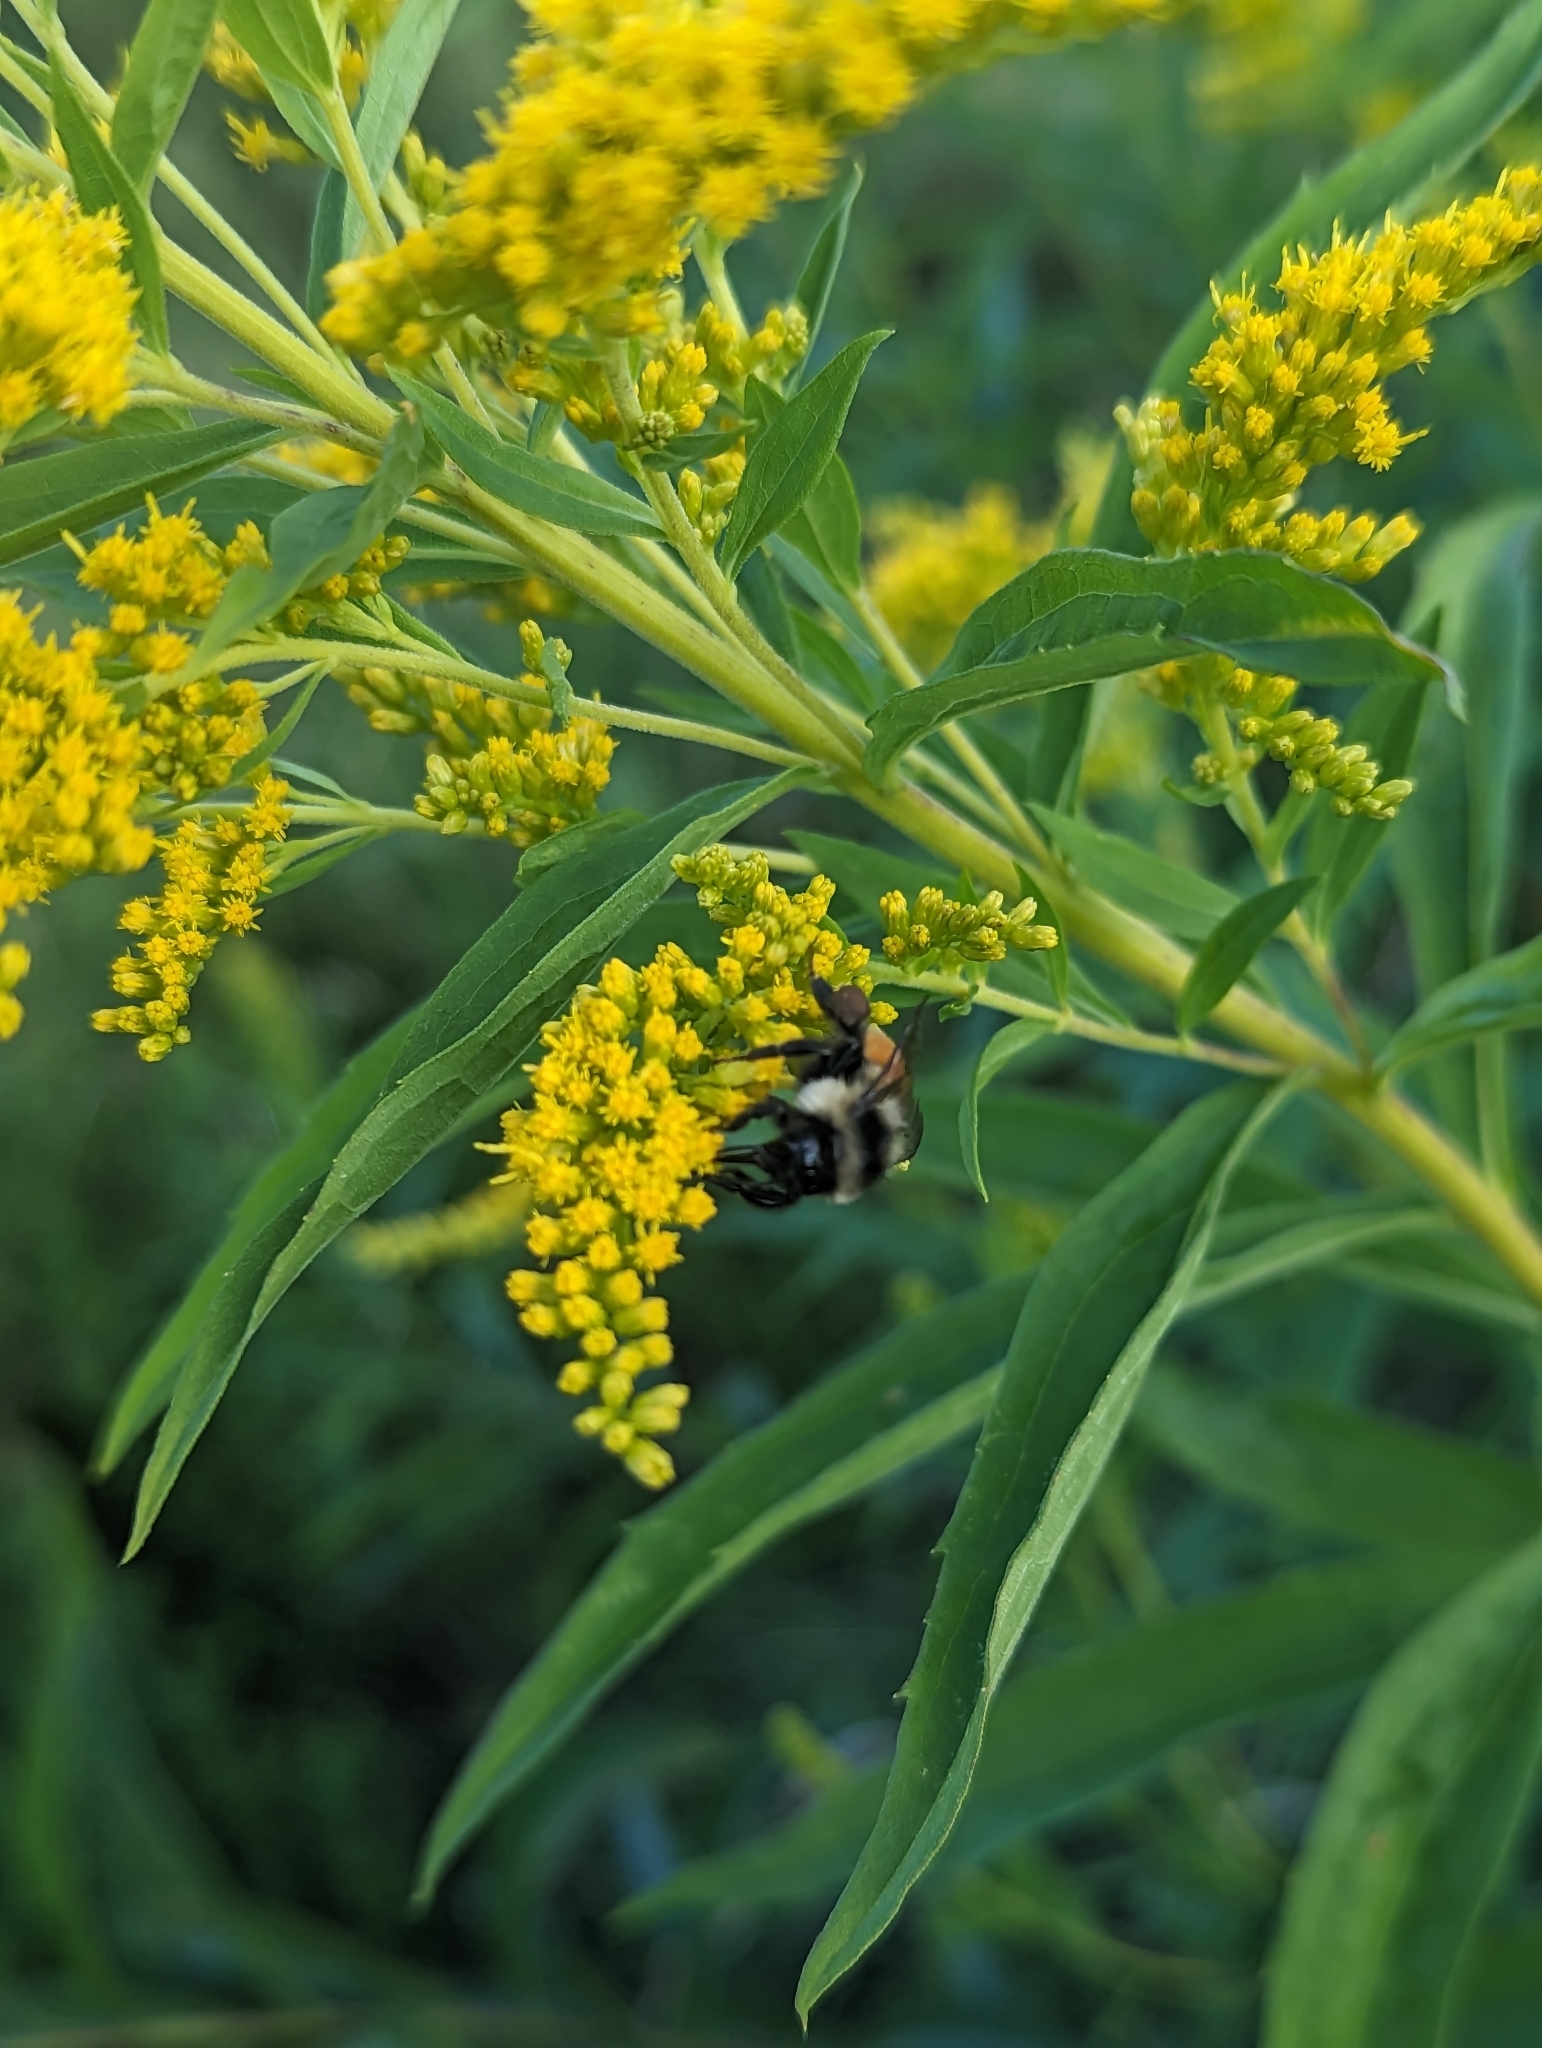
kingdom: Animalia
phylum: Arthropoda
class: Insecta
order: Hymenoptera
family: Apidae
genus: Bombus
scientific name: Bombus ternarius
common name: Tri-colored bumble bee
